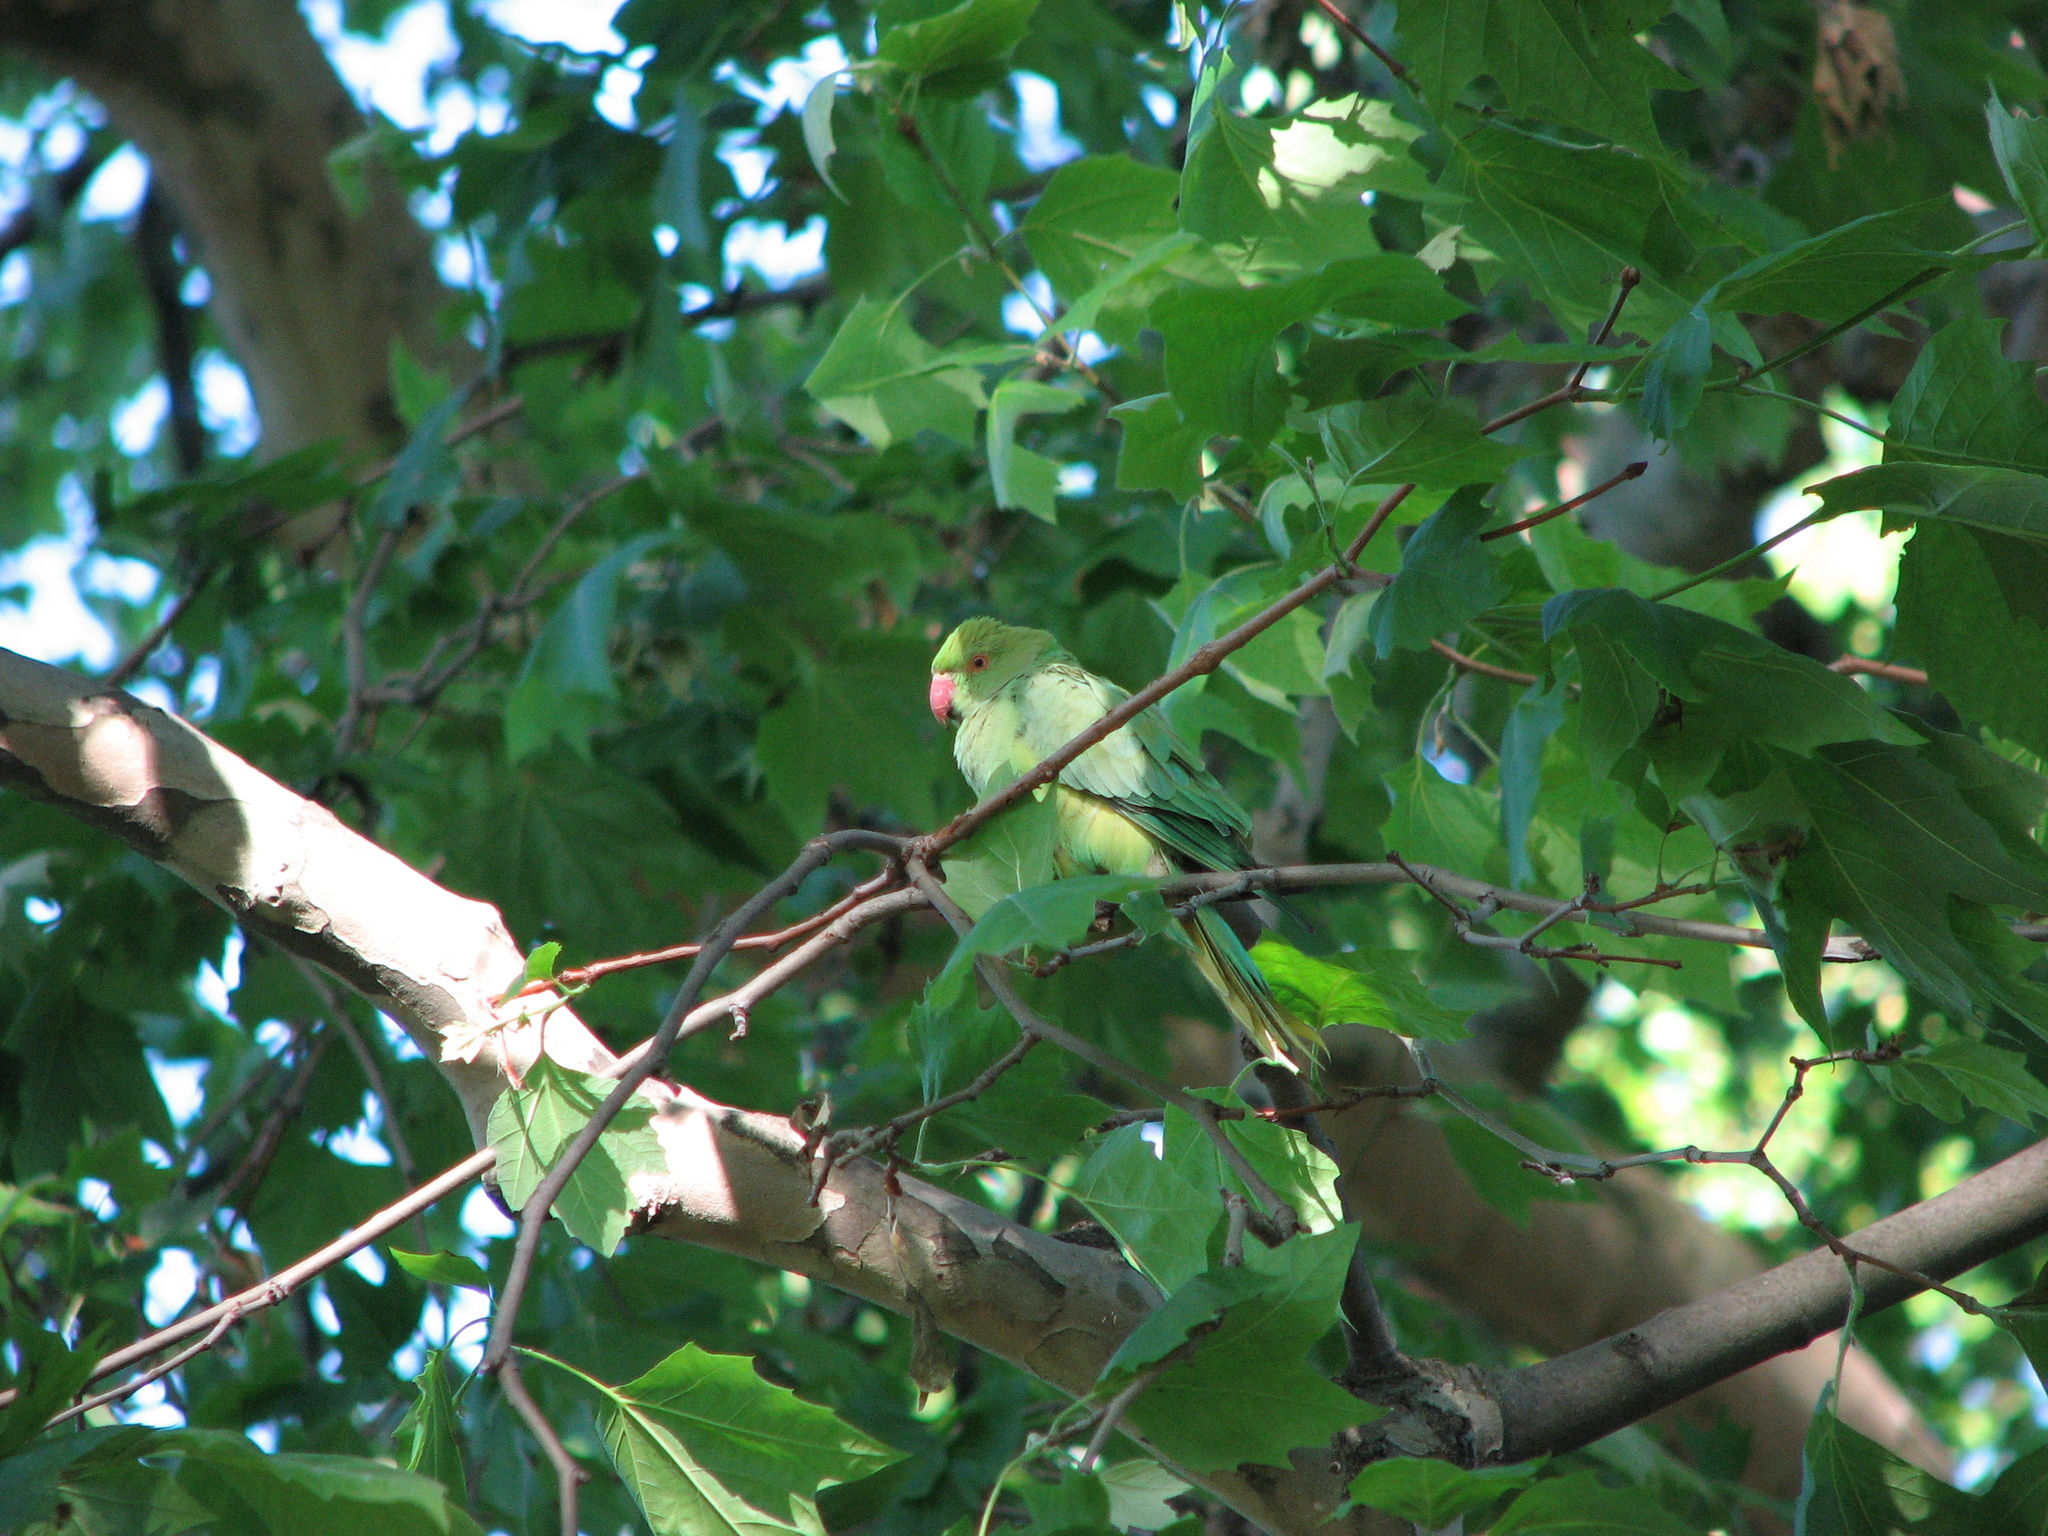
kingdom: Animalia
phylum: Chordata
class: Aves
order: Psittaciformes
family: Psittacidae
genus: Psittacula
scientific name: Psittacula krameri
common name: Rose-ringed parakeet
